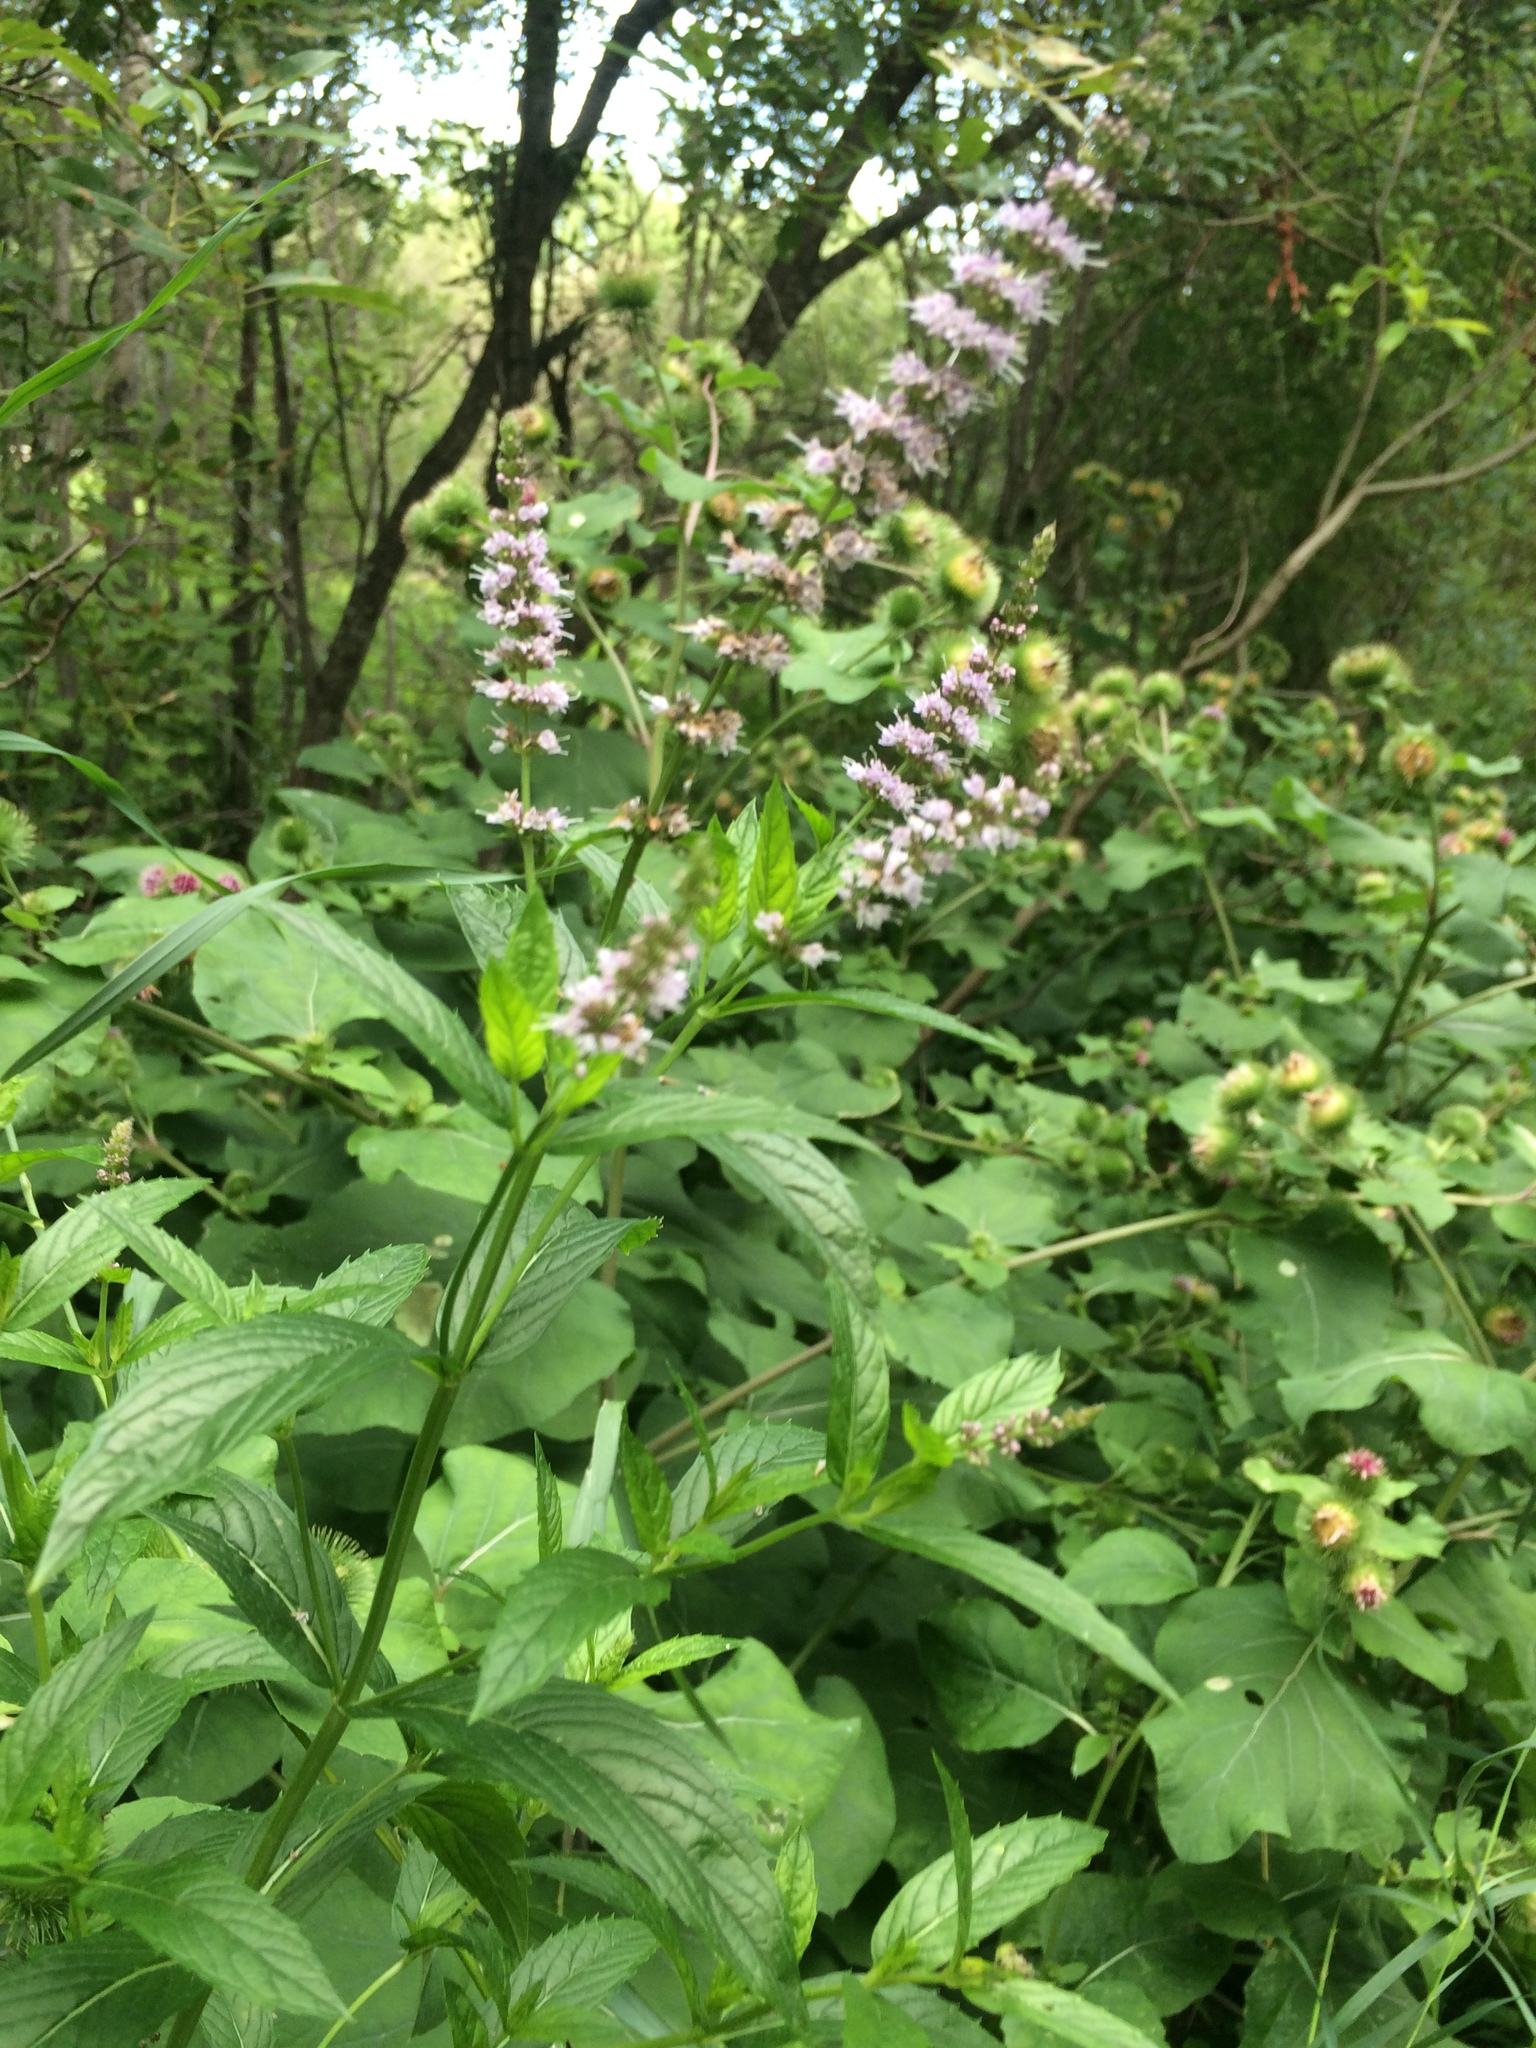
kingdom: Plantae
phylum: Tracheophyta
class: Magnoliopsida
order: Lamiales
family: Lamiaceae
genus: Mentha
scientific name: Mentha spicata
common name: Spearmint
